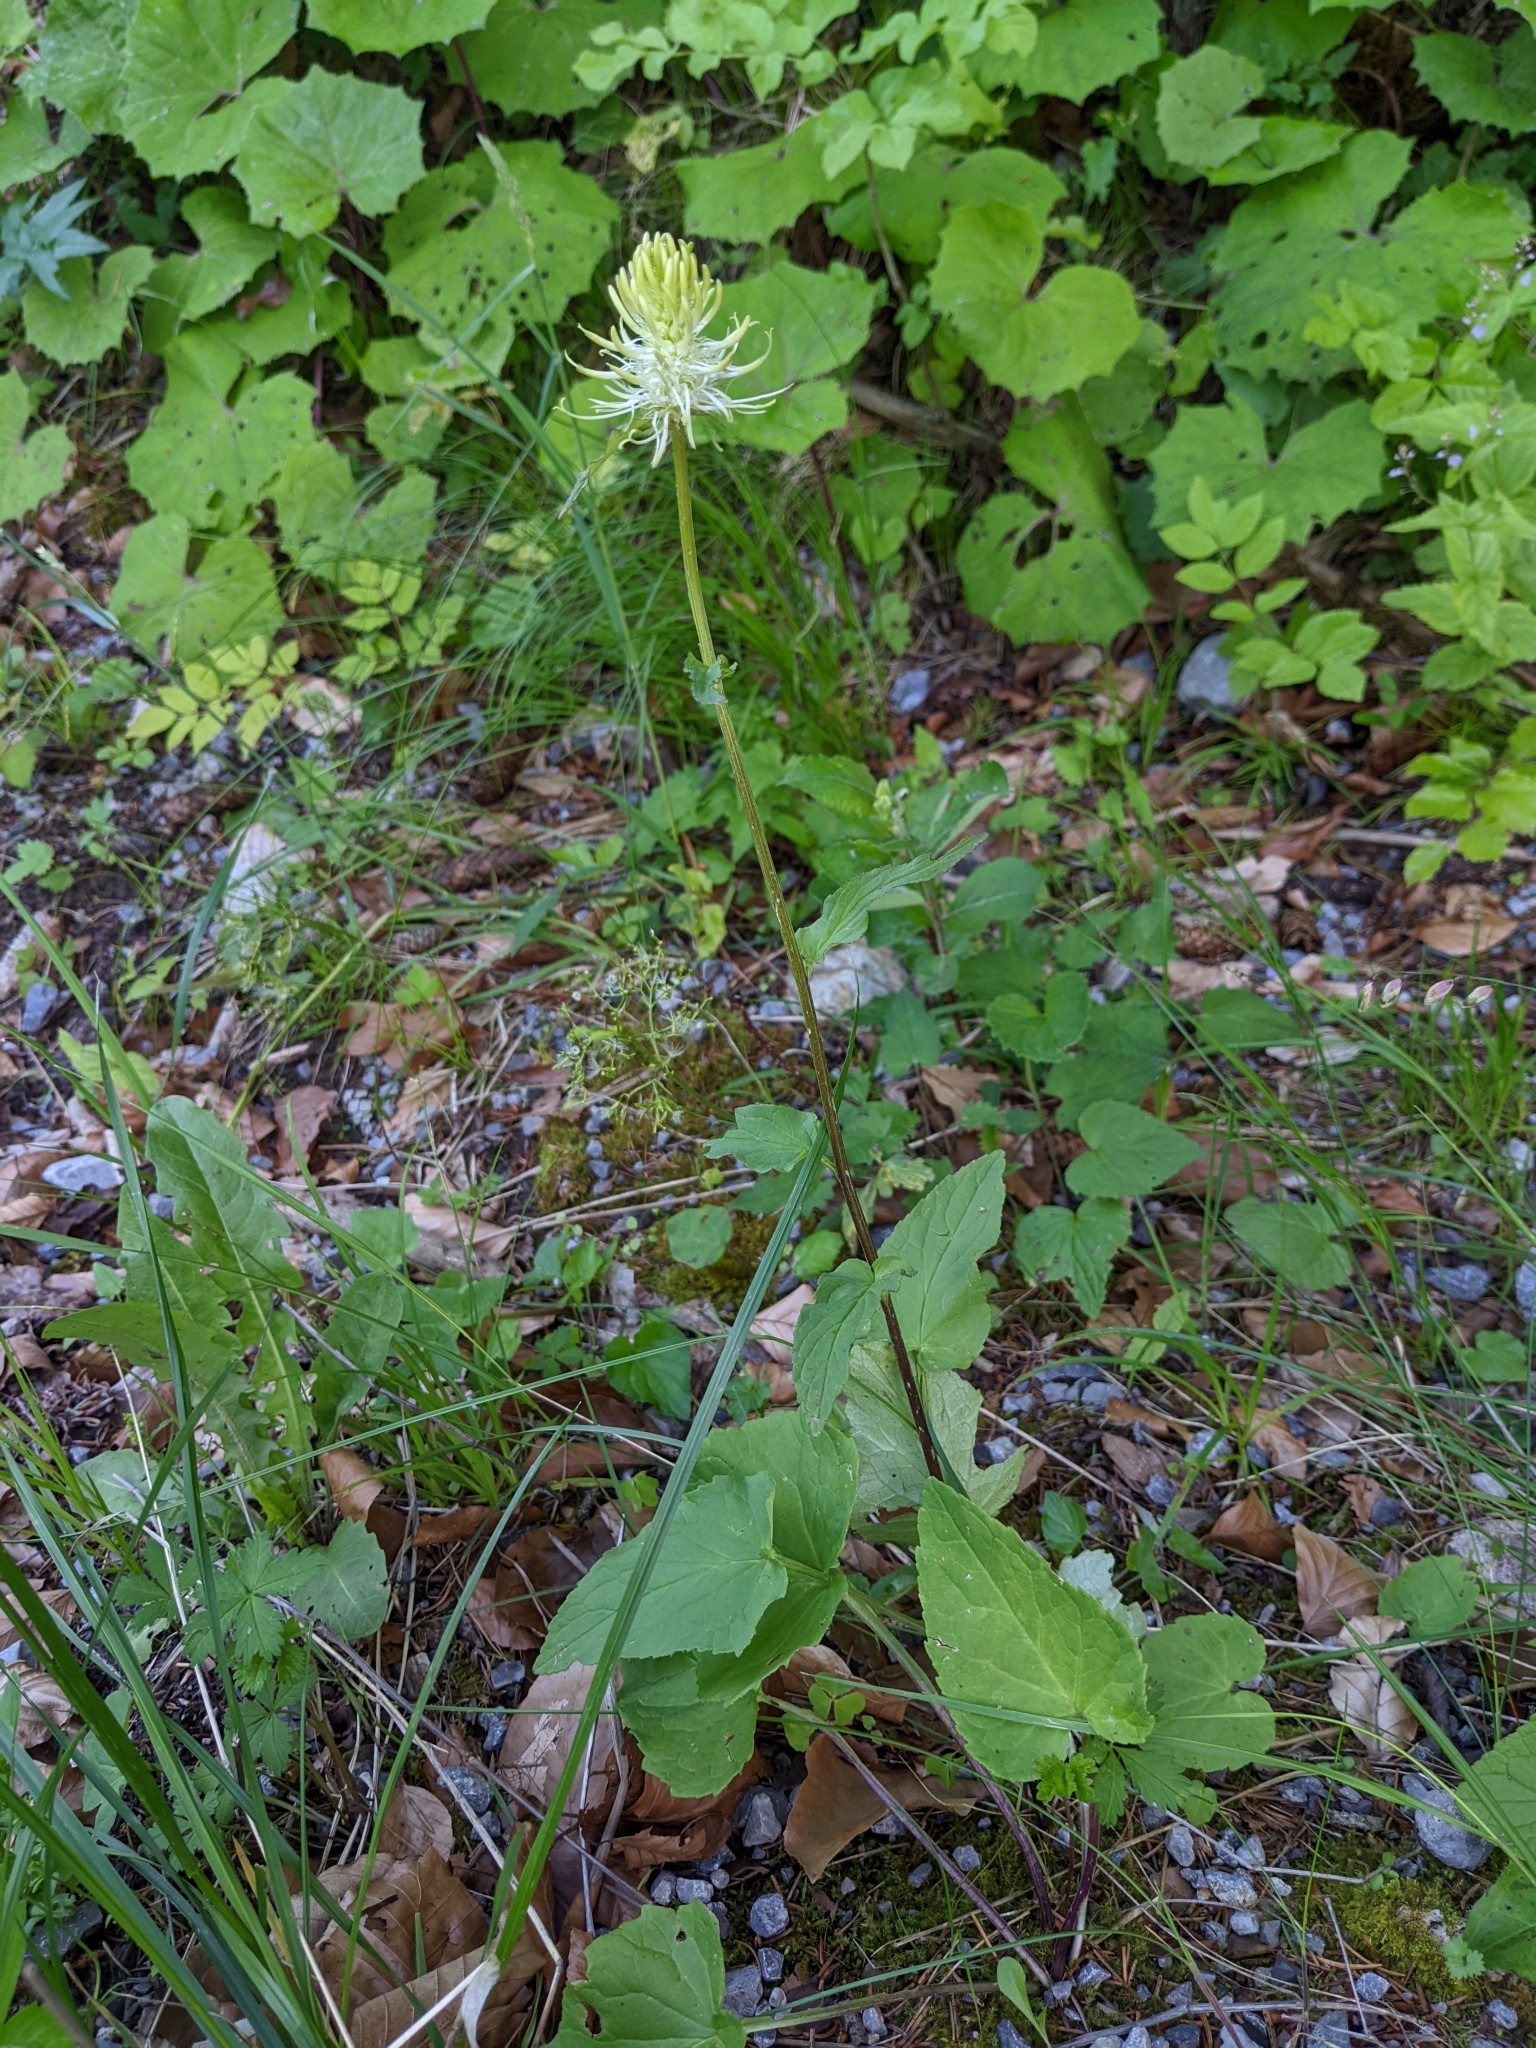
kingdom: Plantae
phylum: Tracheophyta
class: Magnoliopsida
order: Asterales
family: Campanulaceae
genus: Phyteuma
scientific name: Phyteuma spicatum
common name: Spiked rampion
